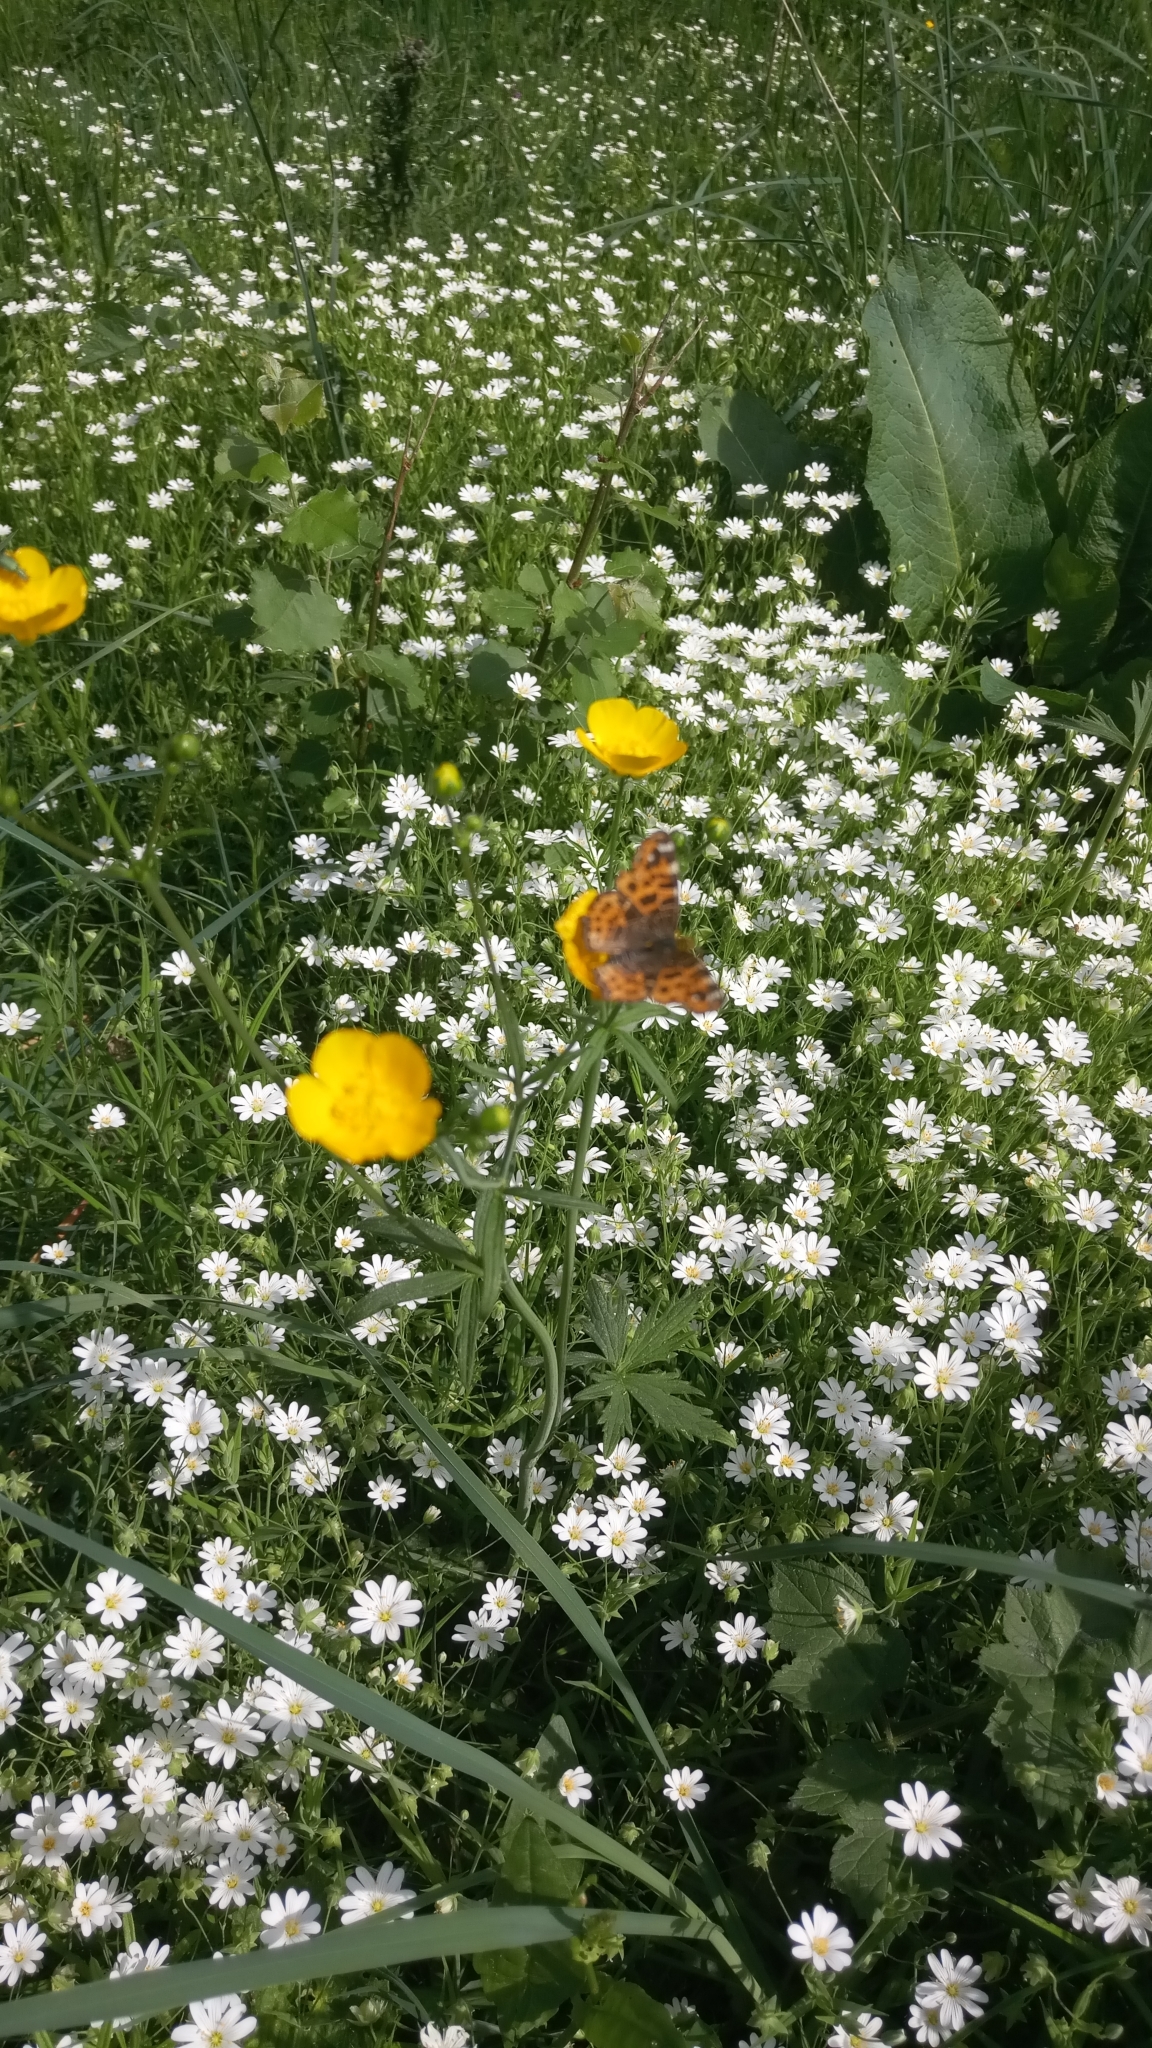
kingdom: Animalia
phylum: Arthropoda
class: Insecta
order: Lepidoptera
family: Nymphalidae
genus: Araschnia
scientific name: Araschnia levana
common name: Map butterfly
